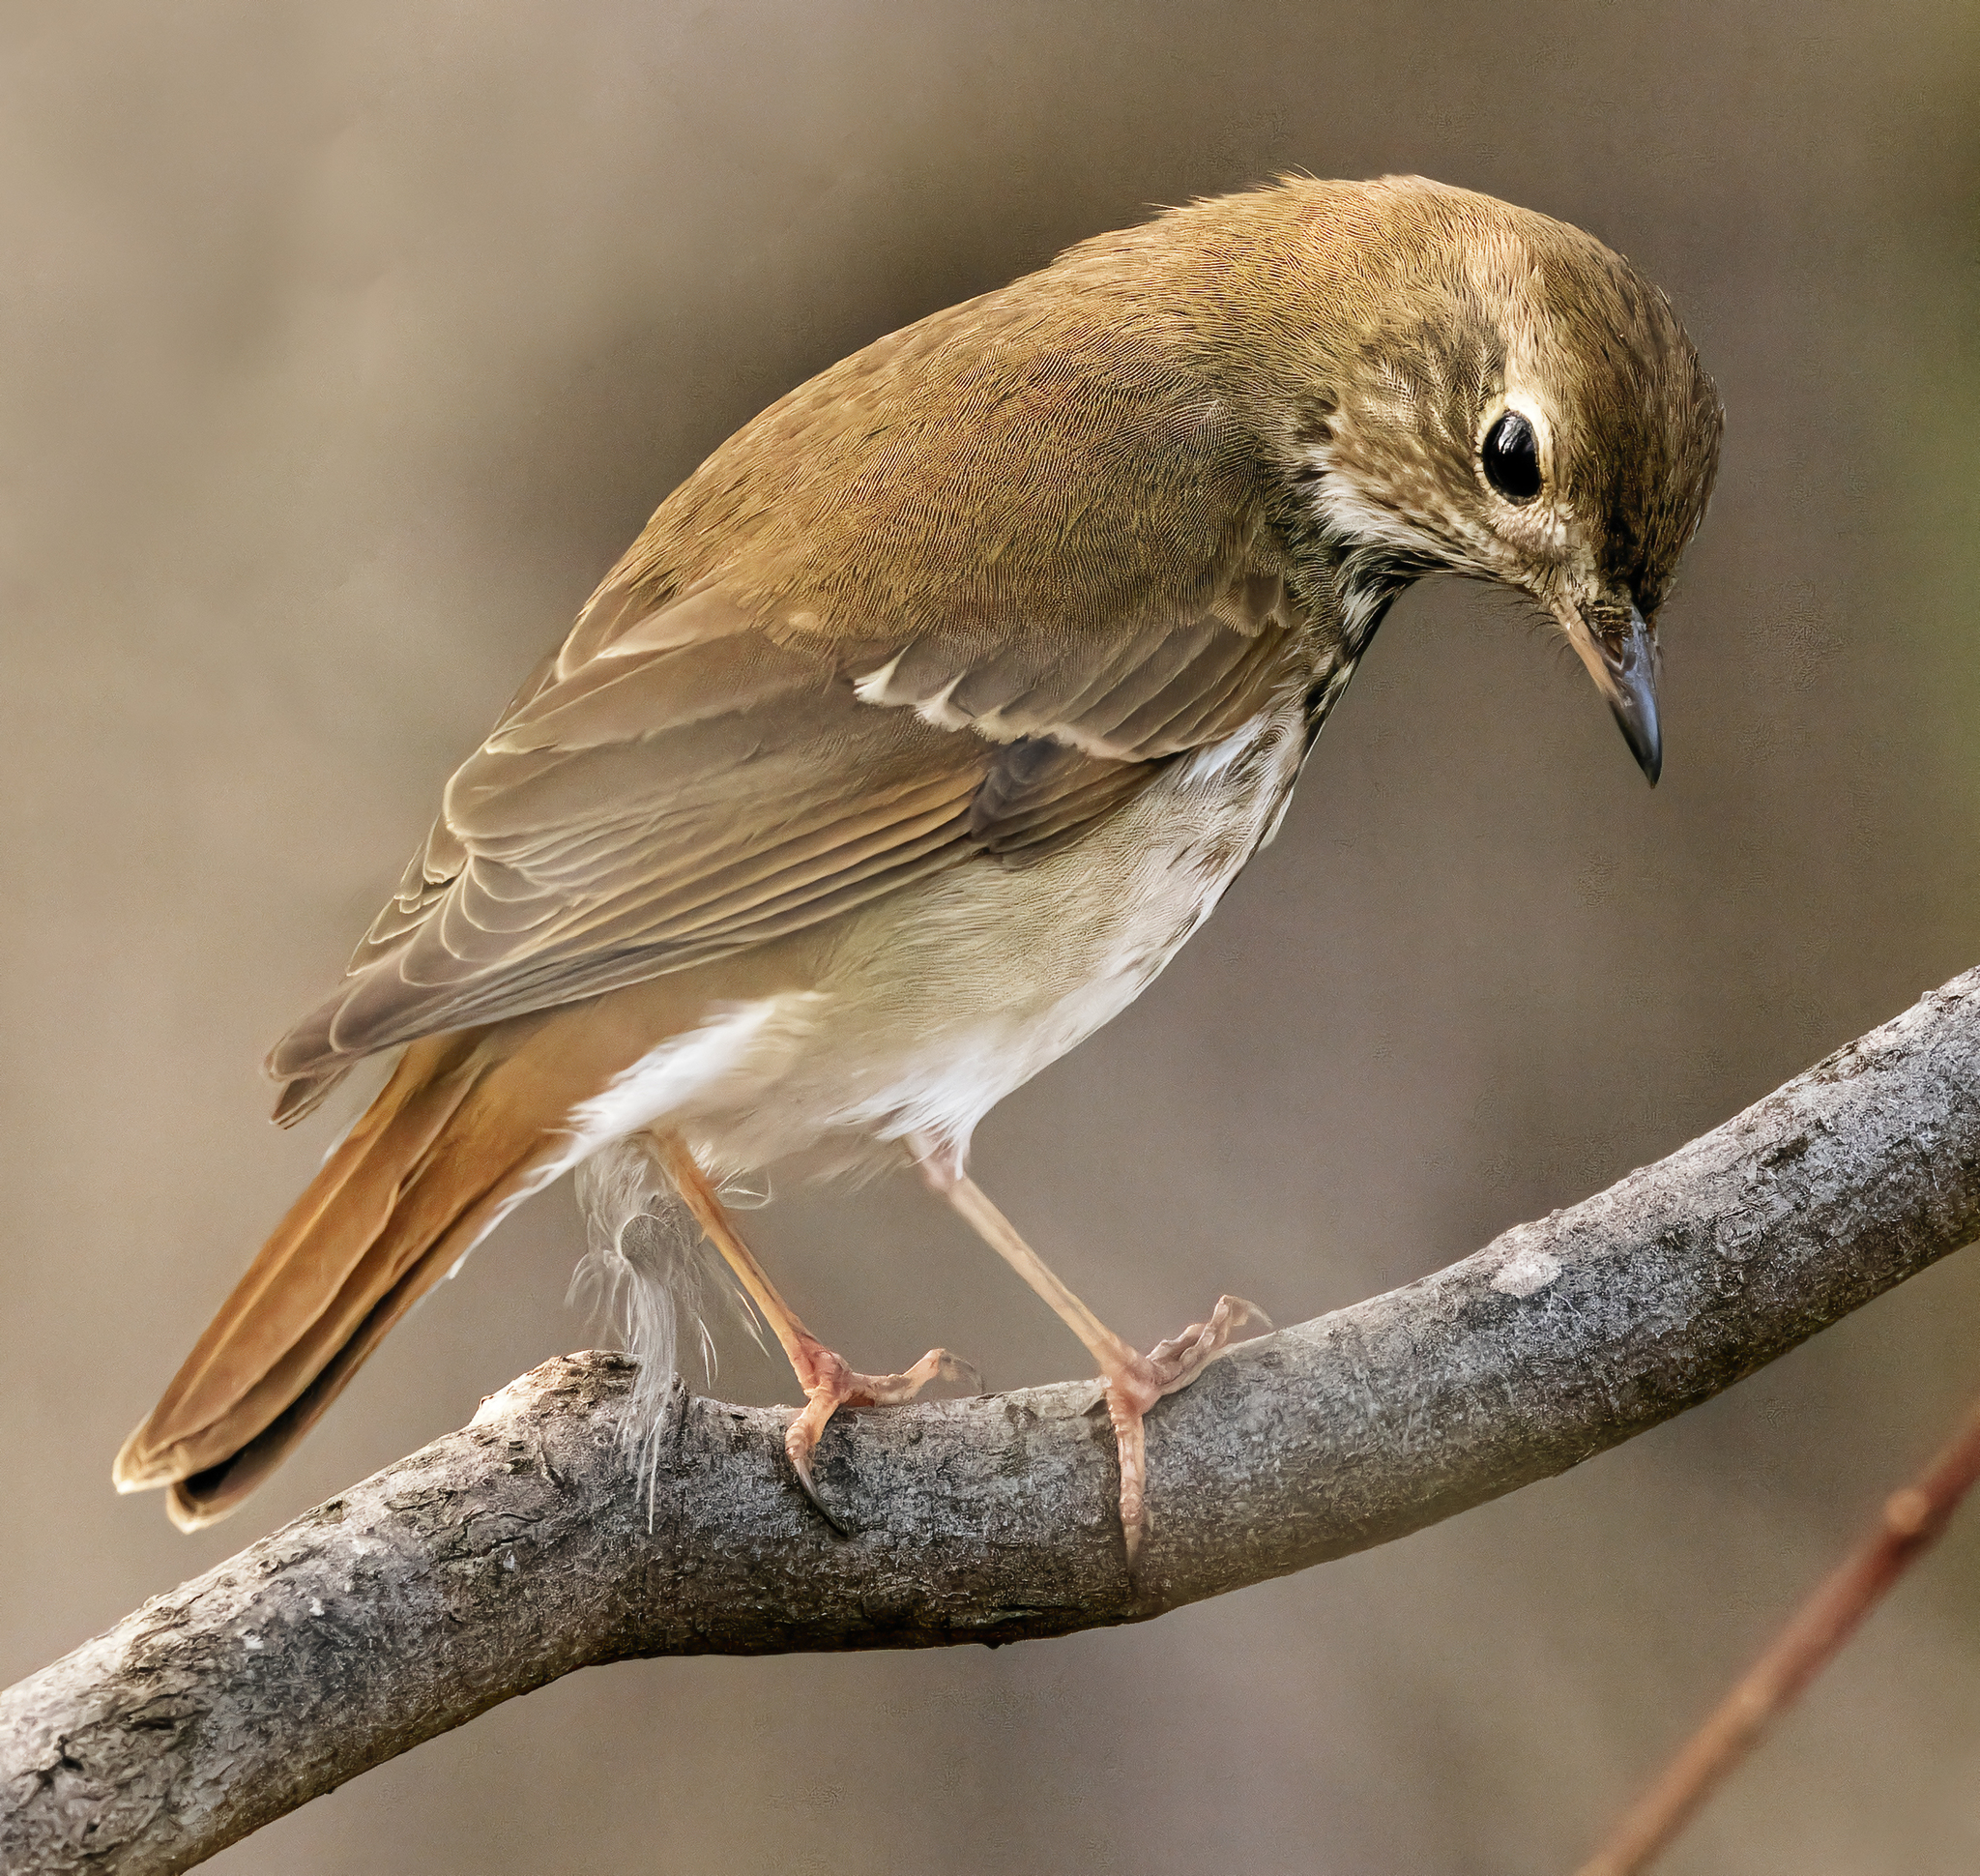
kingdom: Animalia
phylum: Chordata
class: Aves
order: Passeriformes
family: Turdidae
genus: Catharus
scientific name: Catharus guttatus
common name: Hermit thrush
